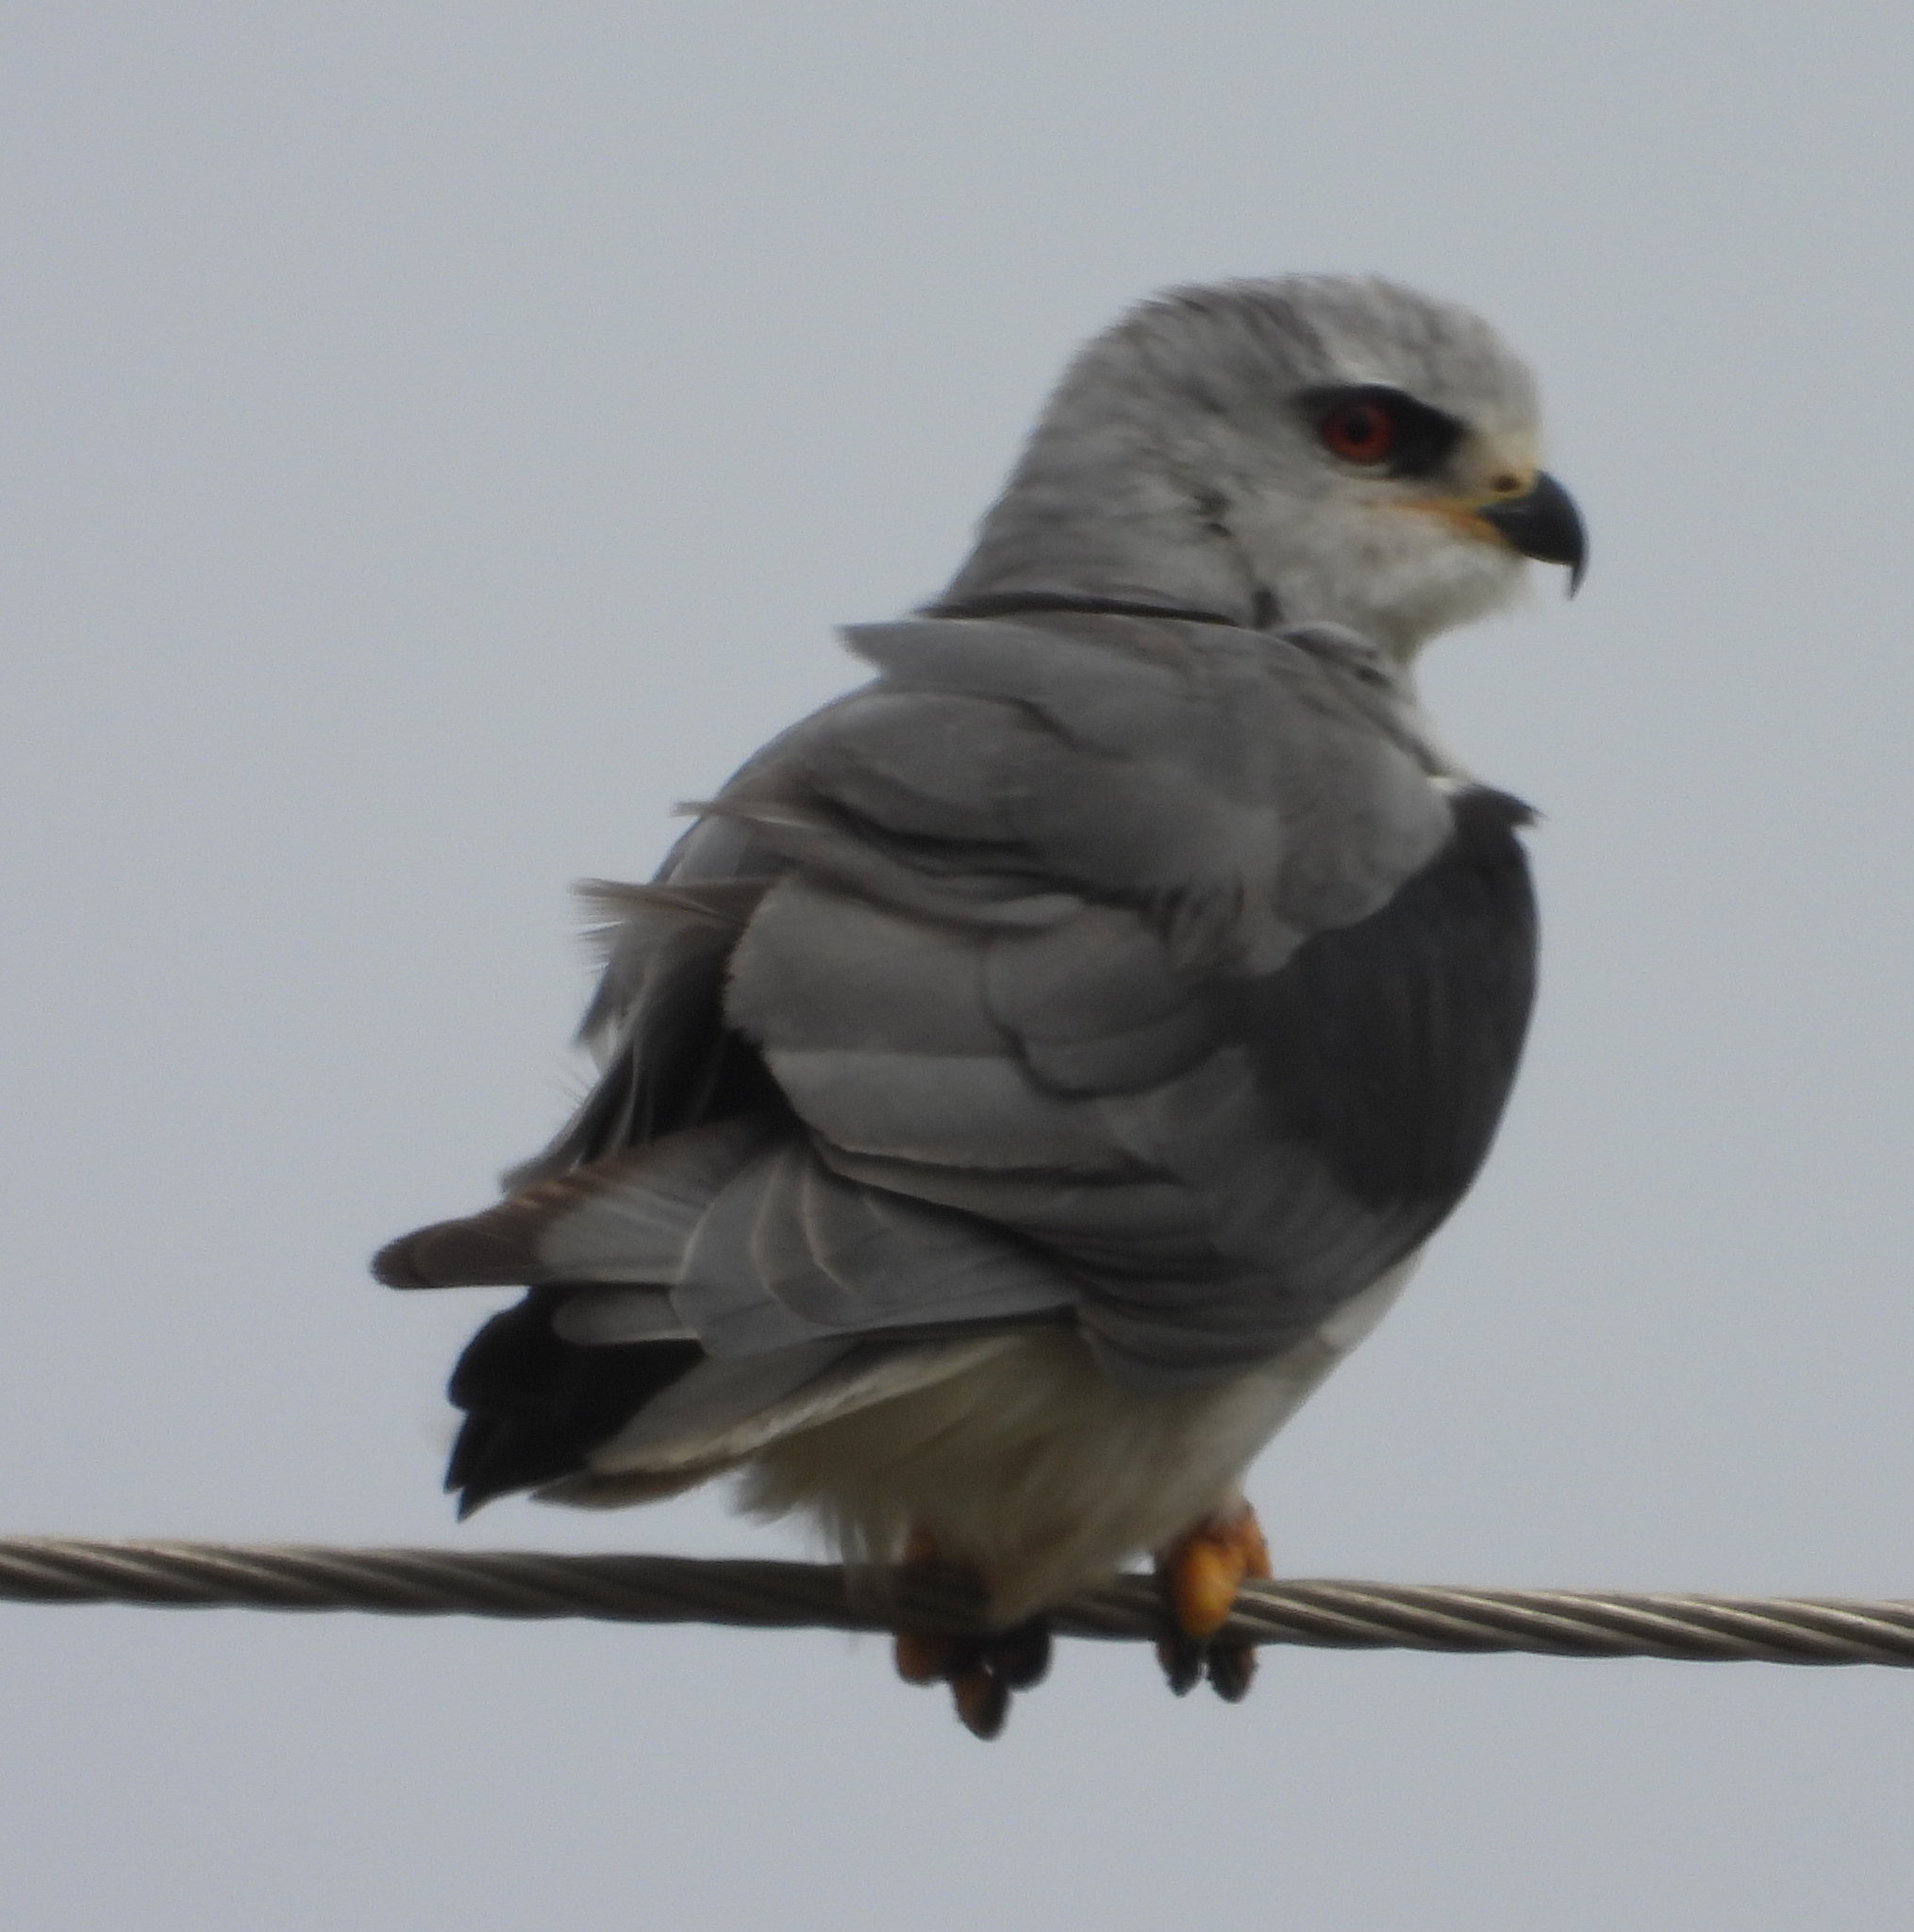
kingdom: Animalia
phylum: Chordata
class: Aves
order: Accipitriformes
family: Accipitridae
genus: Elanus
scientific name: Elanus caeruleus
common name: Black-winged kite
